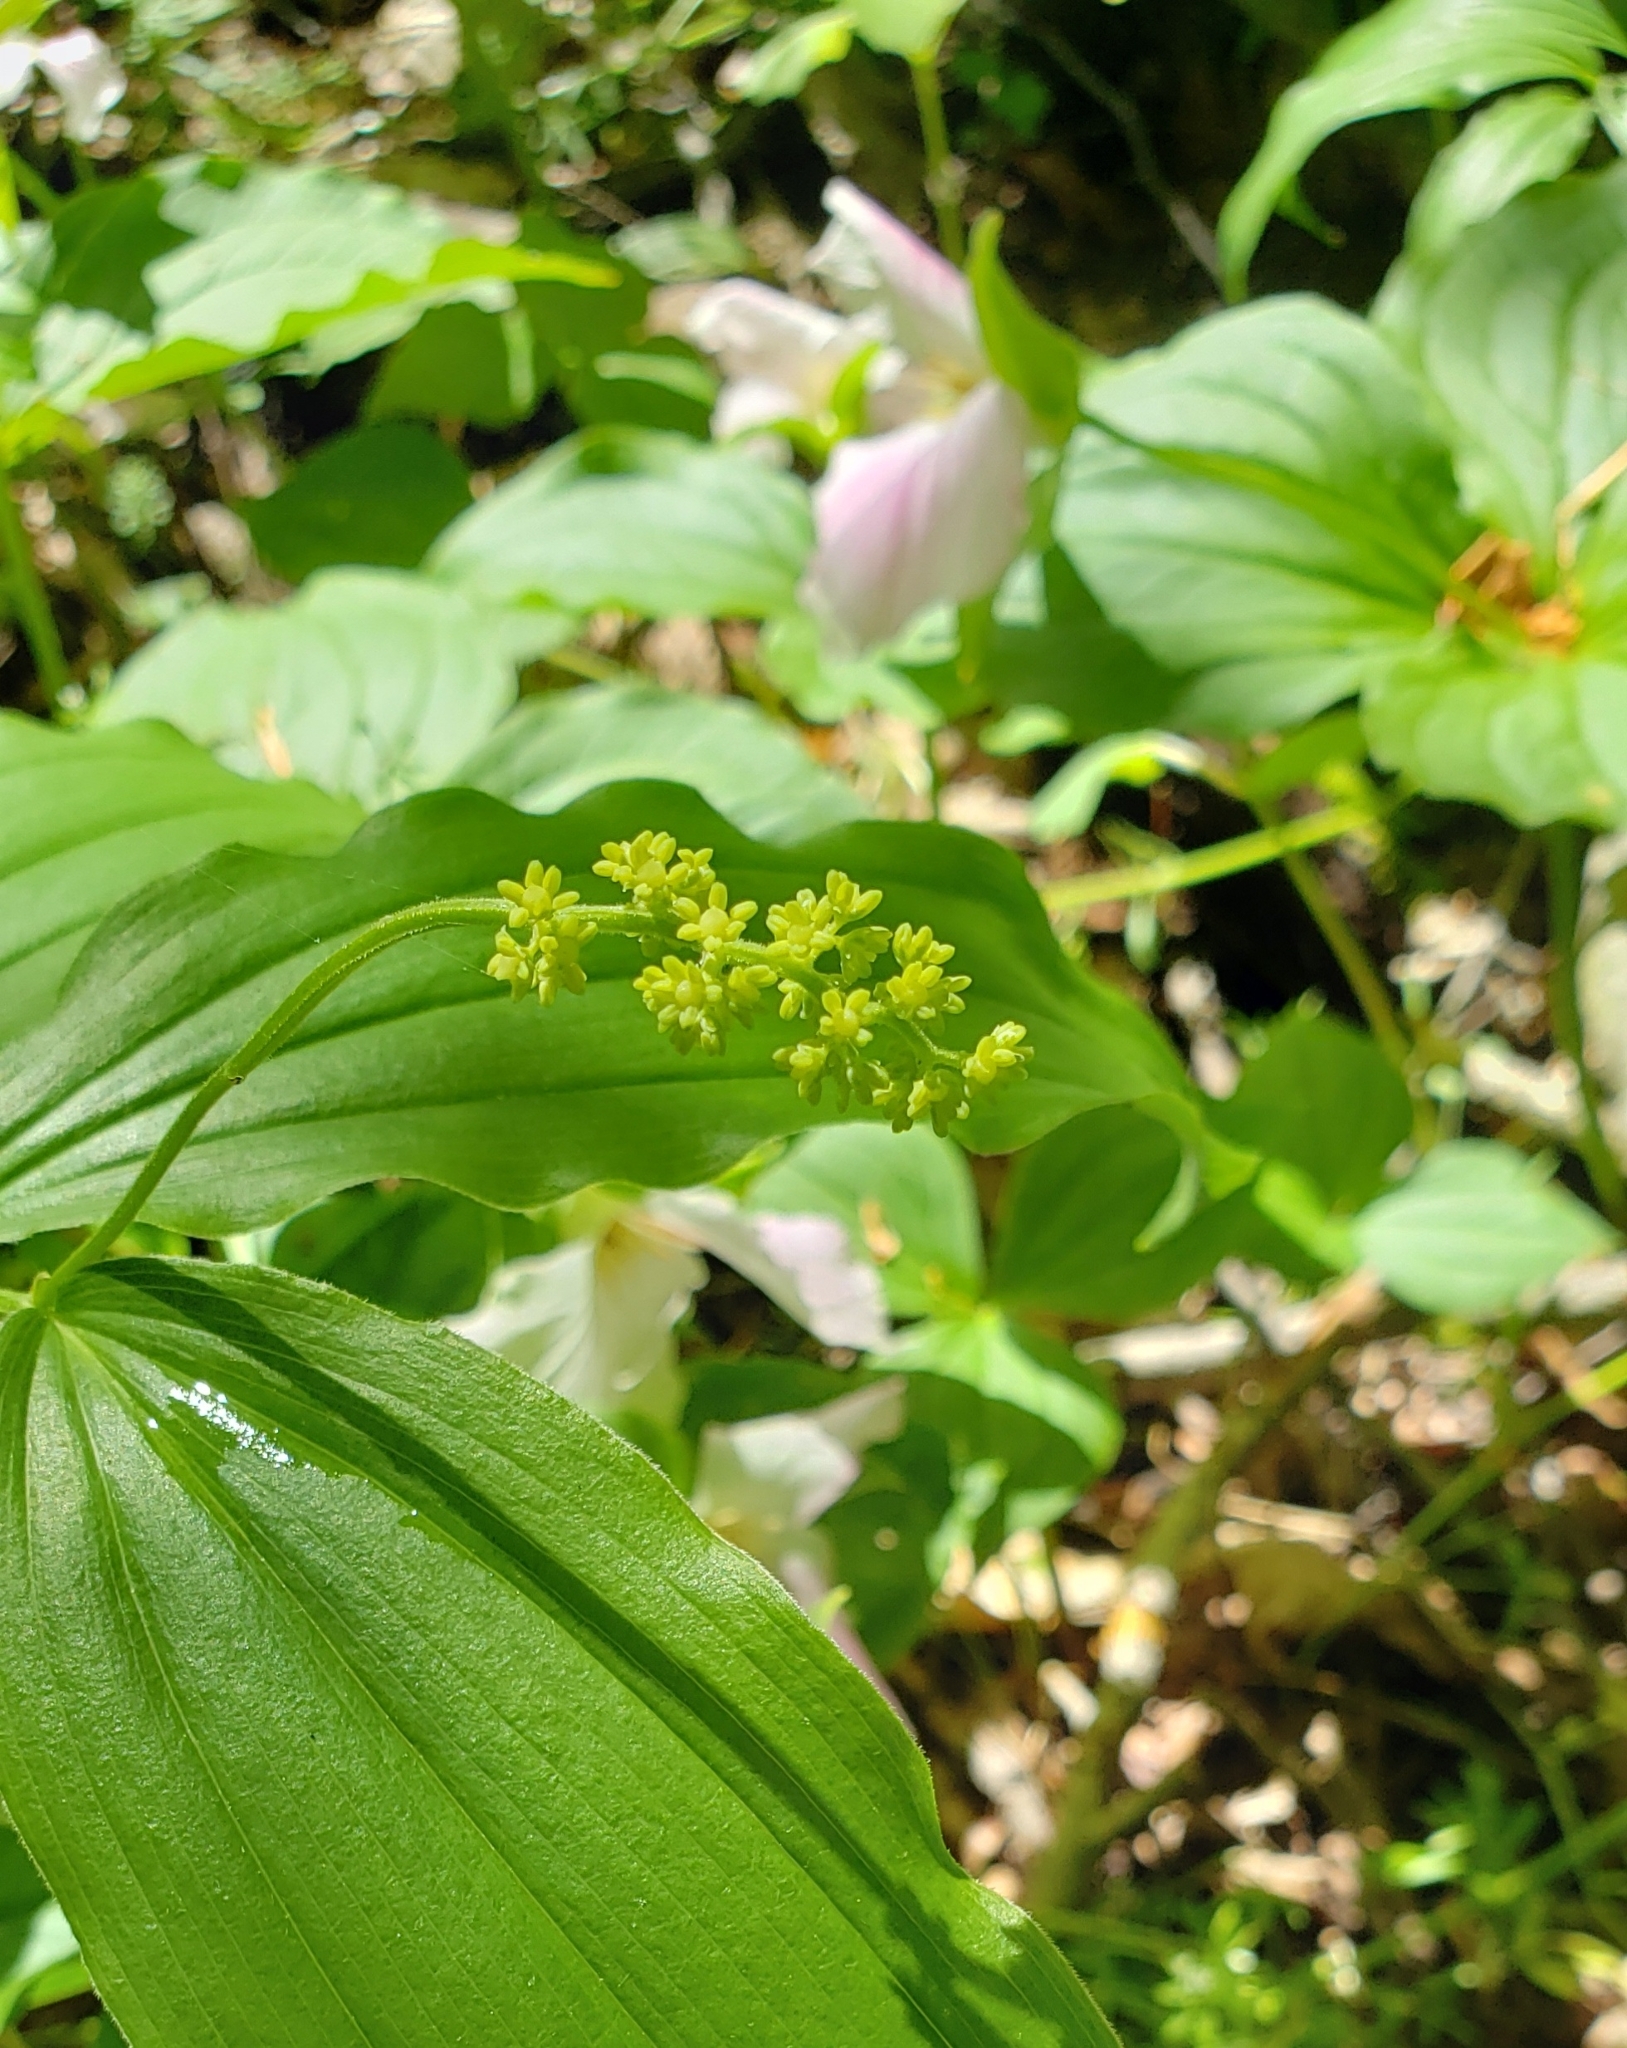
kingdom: Plantae
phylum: Tracheophyta
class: Liliopsida
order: Asparagales
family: Asparagaceae
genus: Maianthemum
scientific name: Maianthemum racemosum
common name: False spikenard
